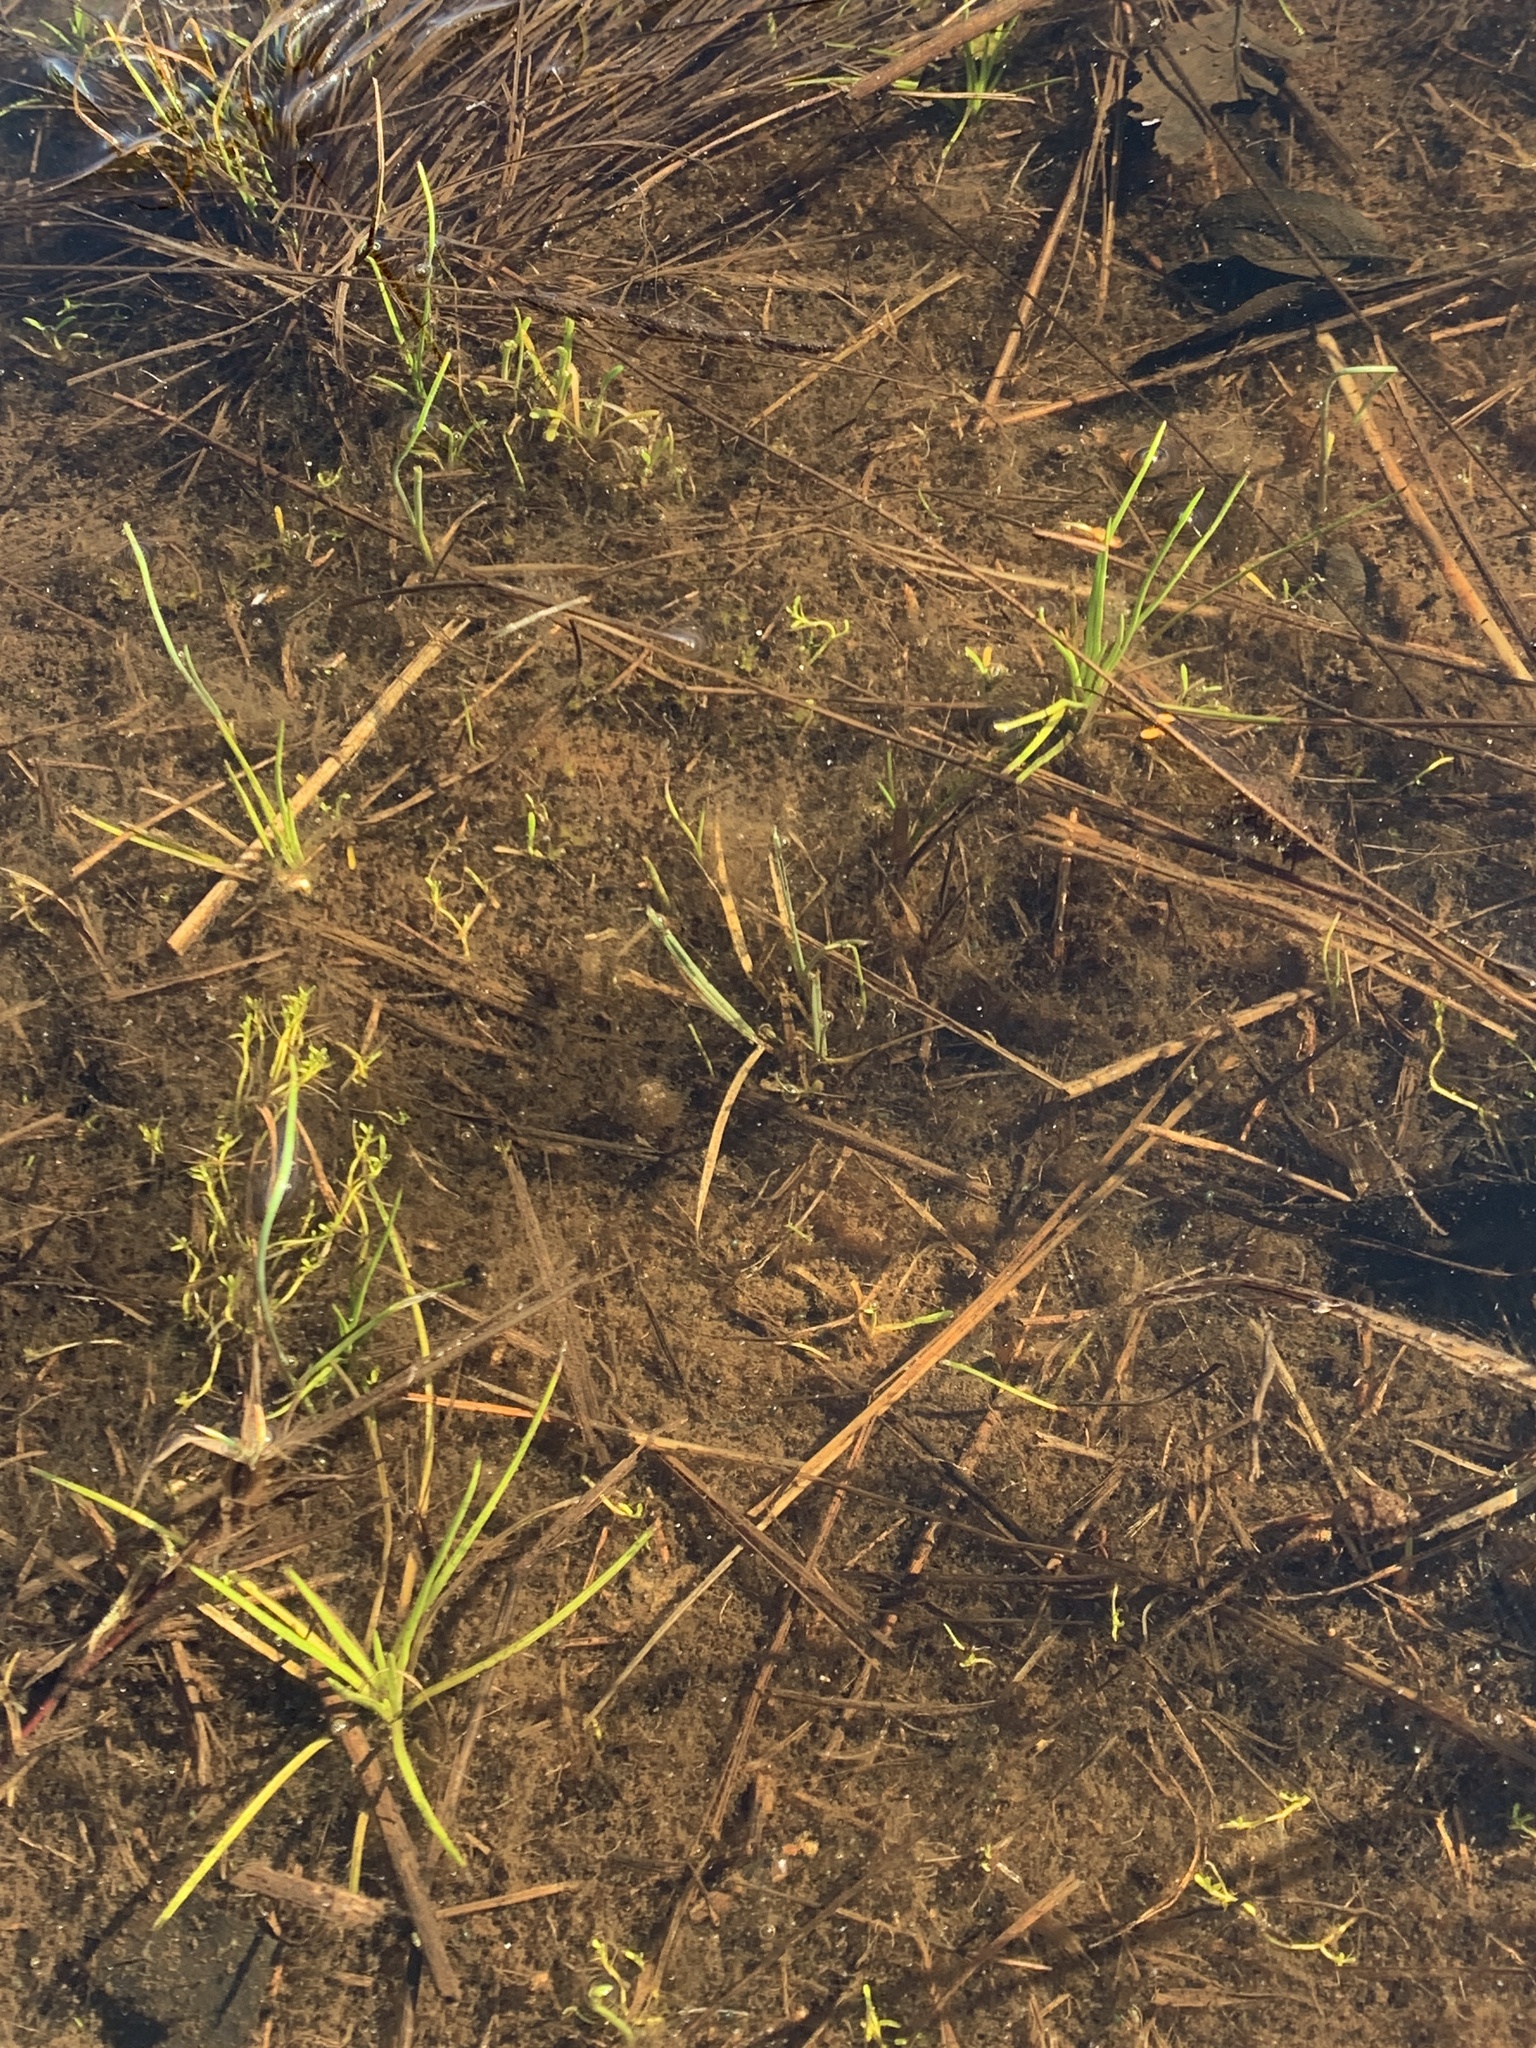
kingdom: Plantae
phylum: Tracheophyta
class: Lycopodiopsida
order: Isoetales
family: Isoetaceae
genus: Isoetes
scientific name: Isoetes nuttallii
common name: Nuttall's quillwort
